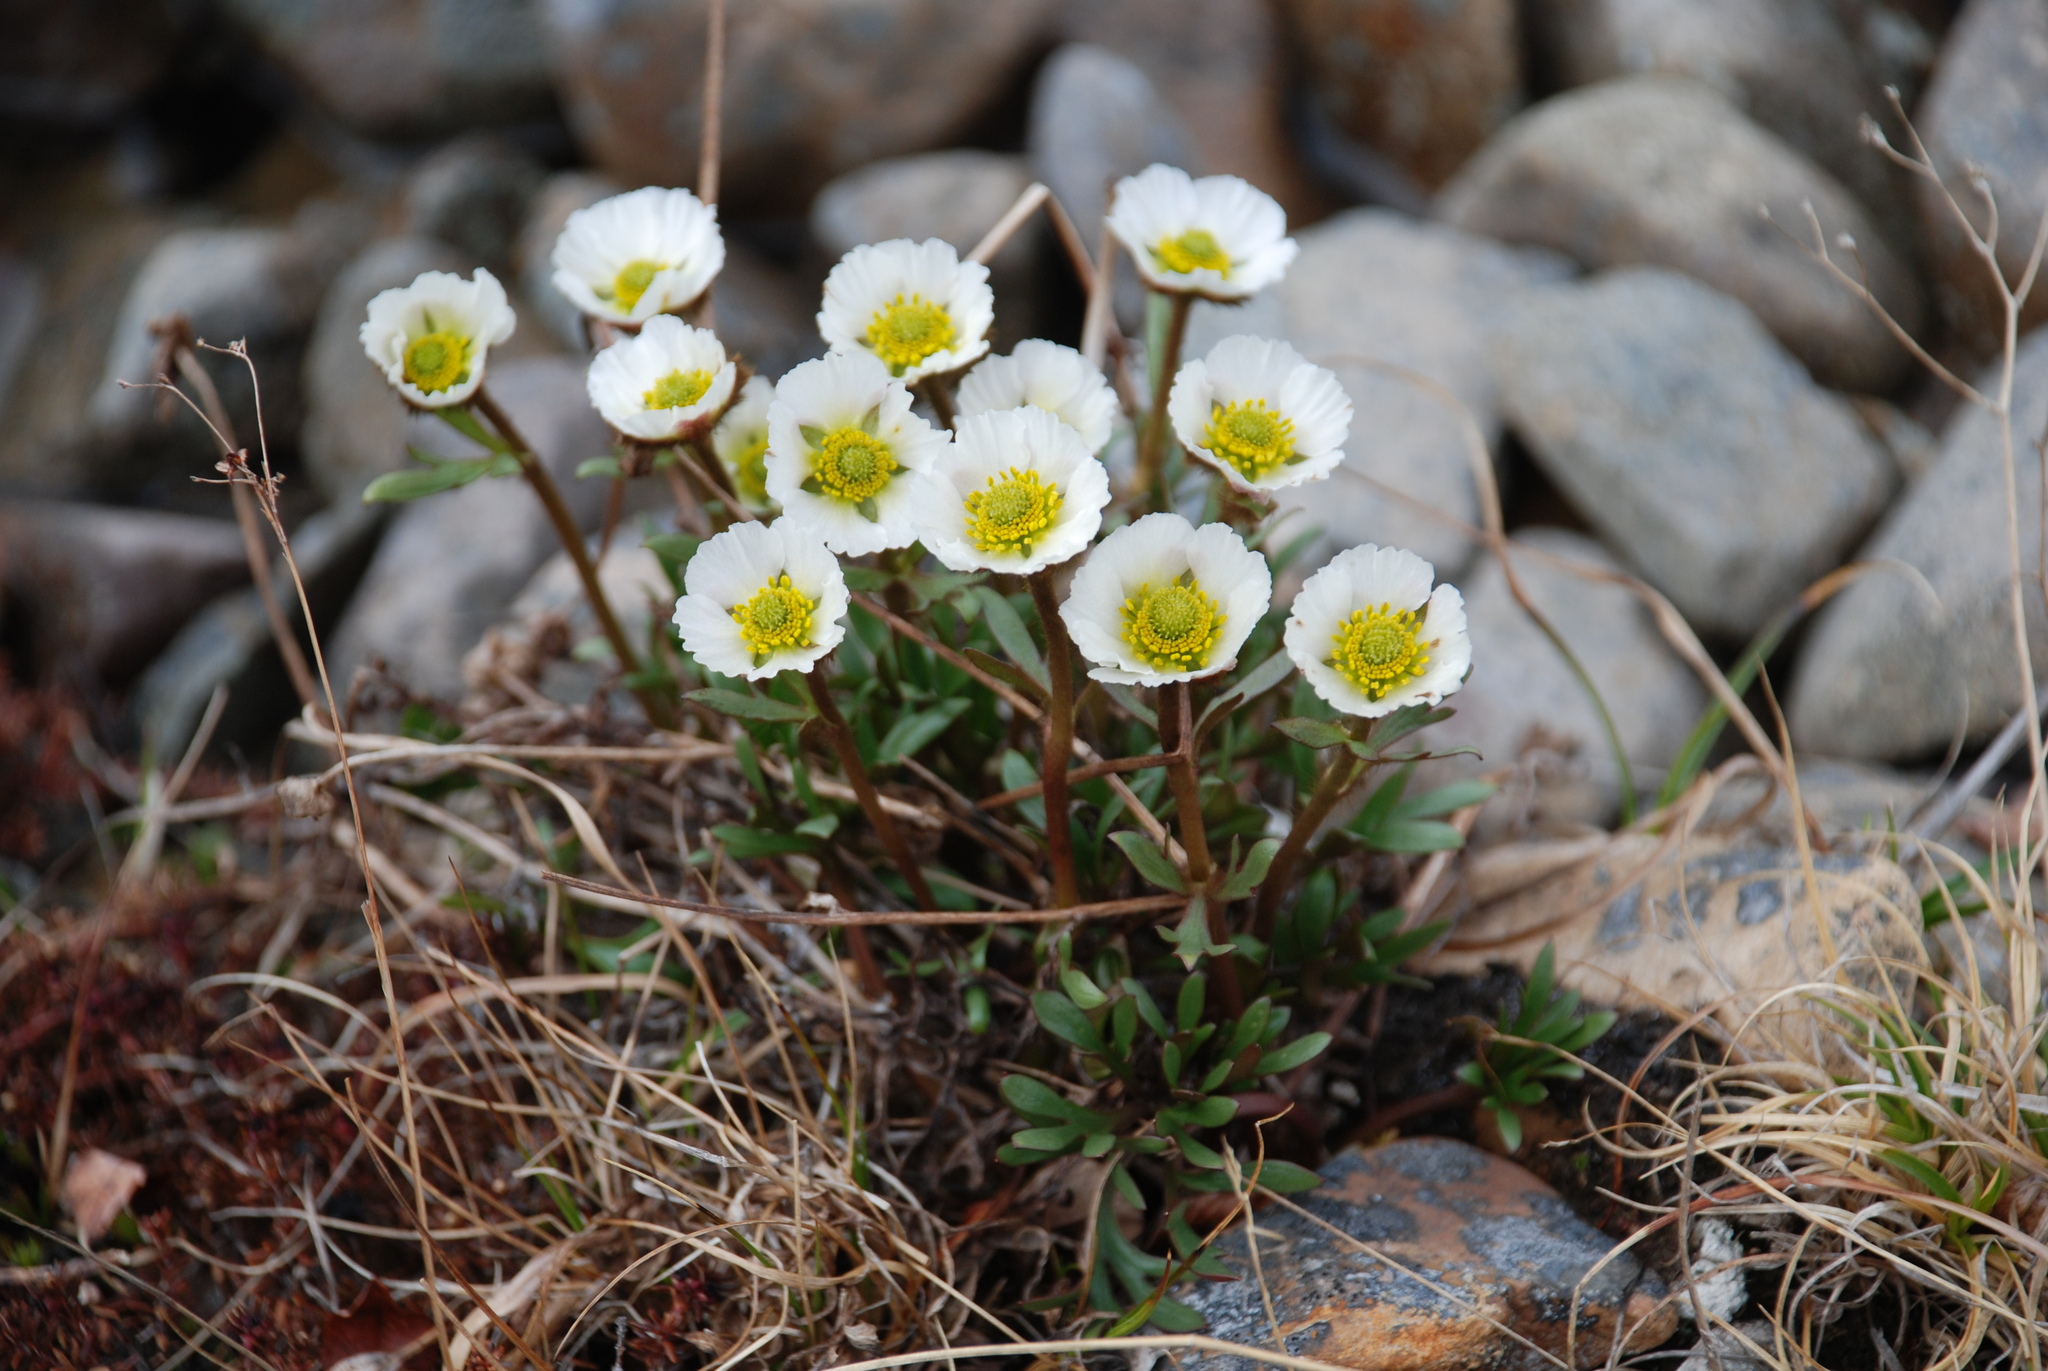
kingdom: Plantae
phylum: Tracheophyta
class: Magnoliopsida
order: Ranunculales
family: Ranunculaceae
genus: Ranunculus
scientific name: Ranunculus glacialis
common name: Glacier buttercup
